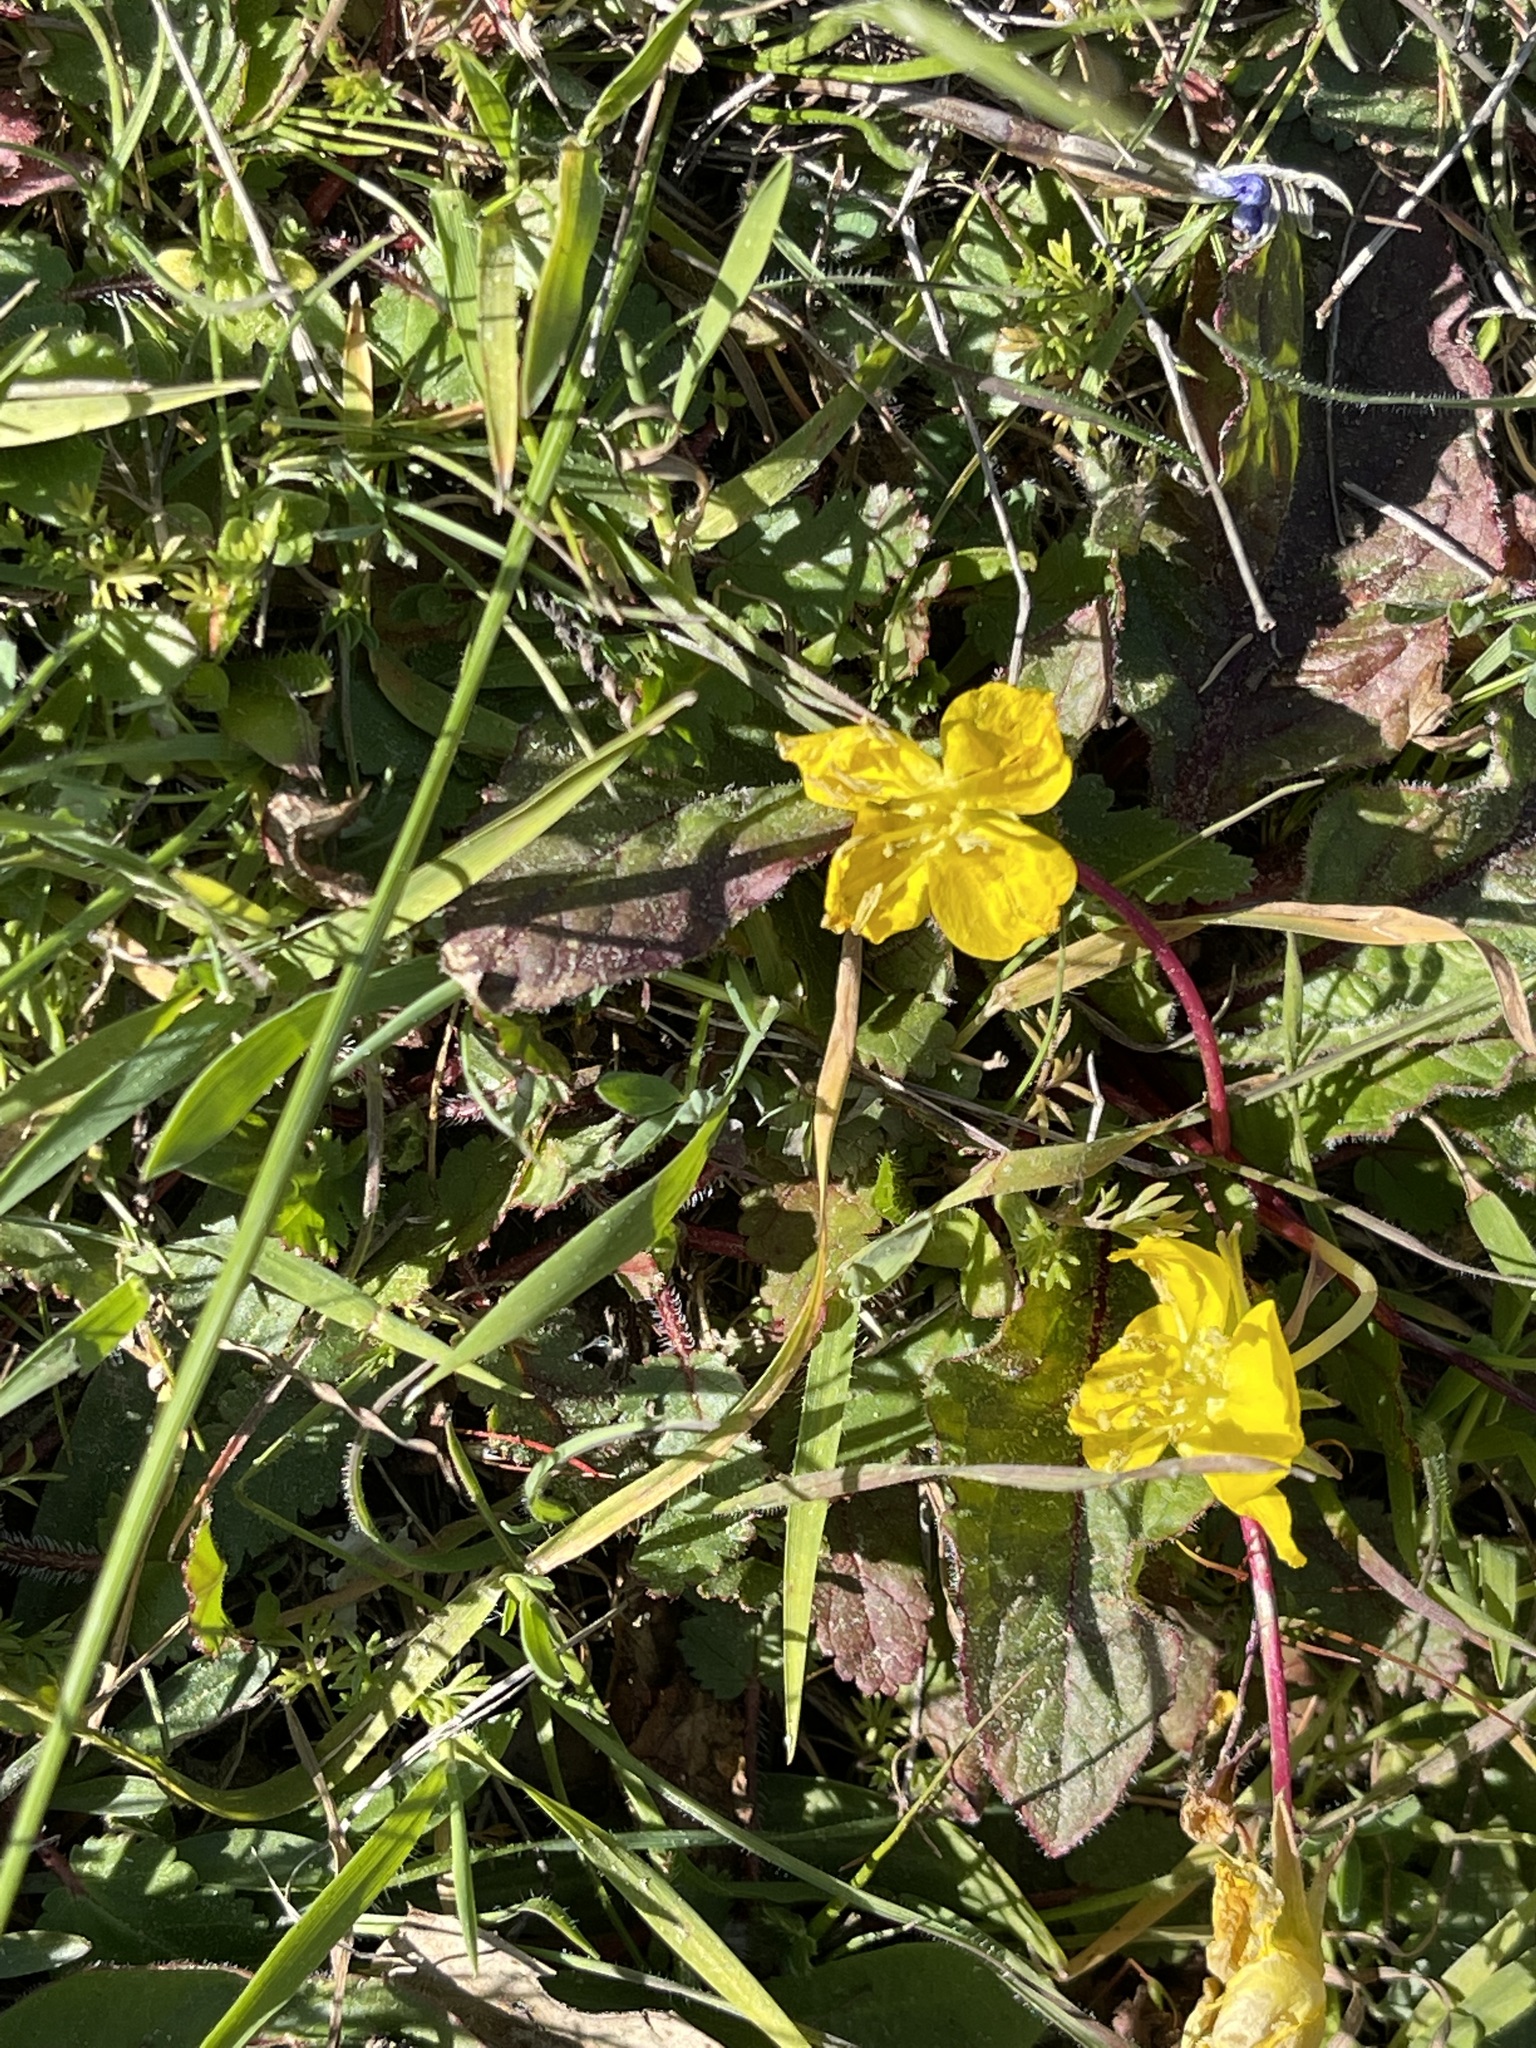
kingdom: Plantae
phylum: Tracheophyta
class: Magnoliopsida
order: Myrtales
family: Onagraceae
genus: Taraxia
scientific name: Taraxia ovata
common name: Goldeneggs
